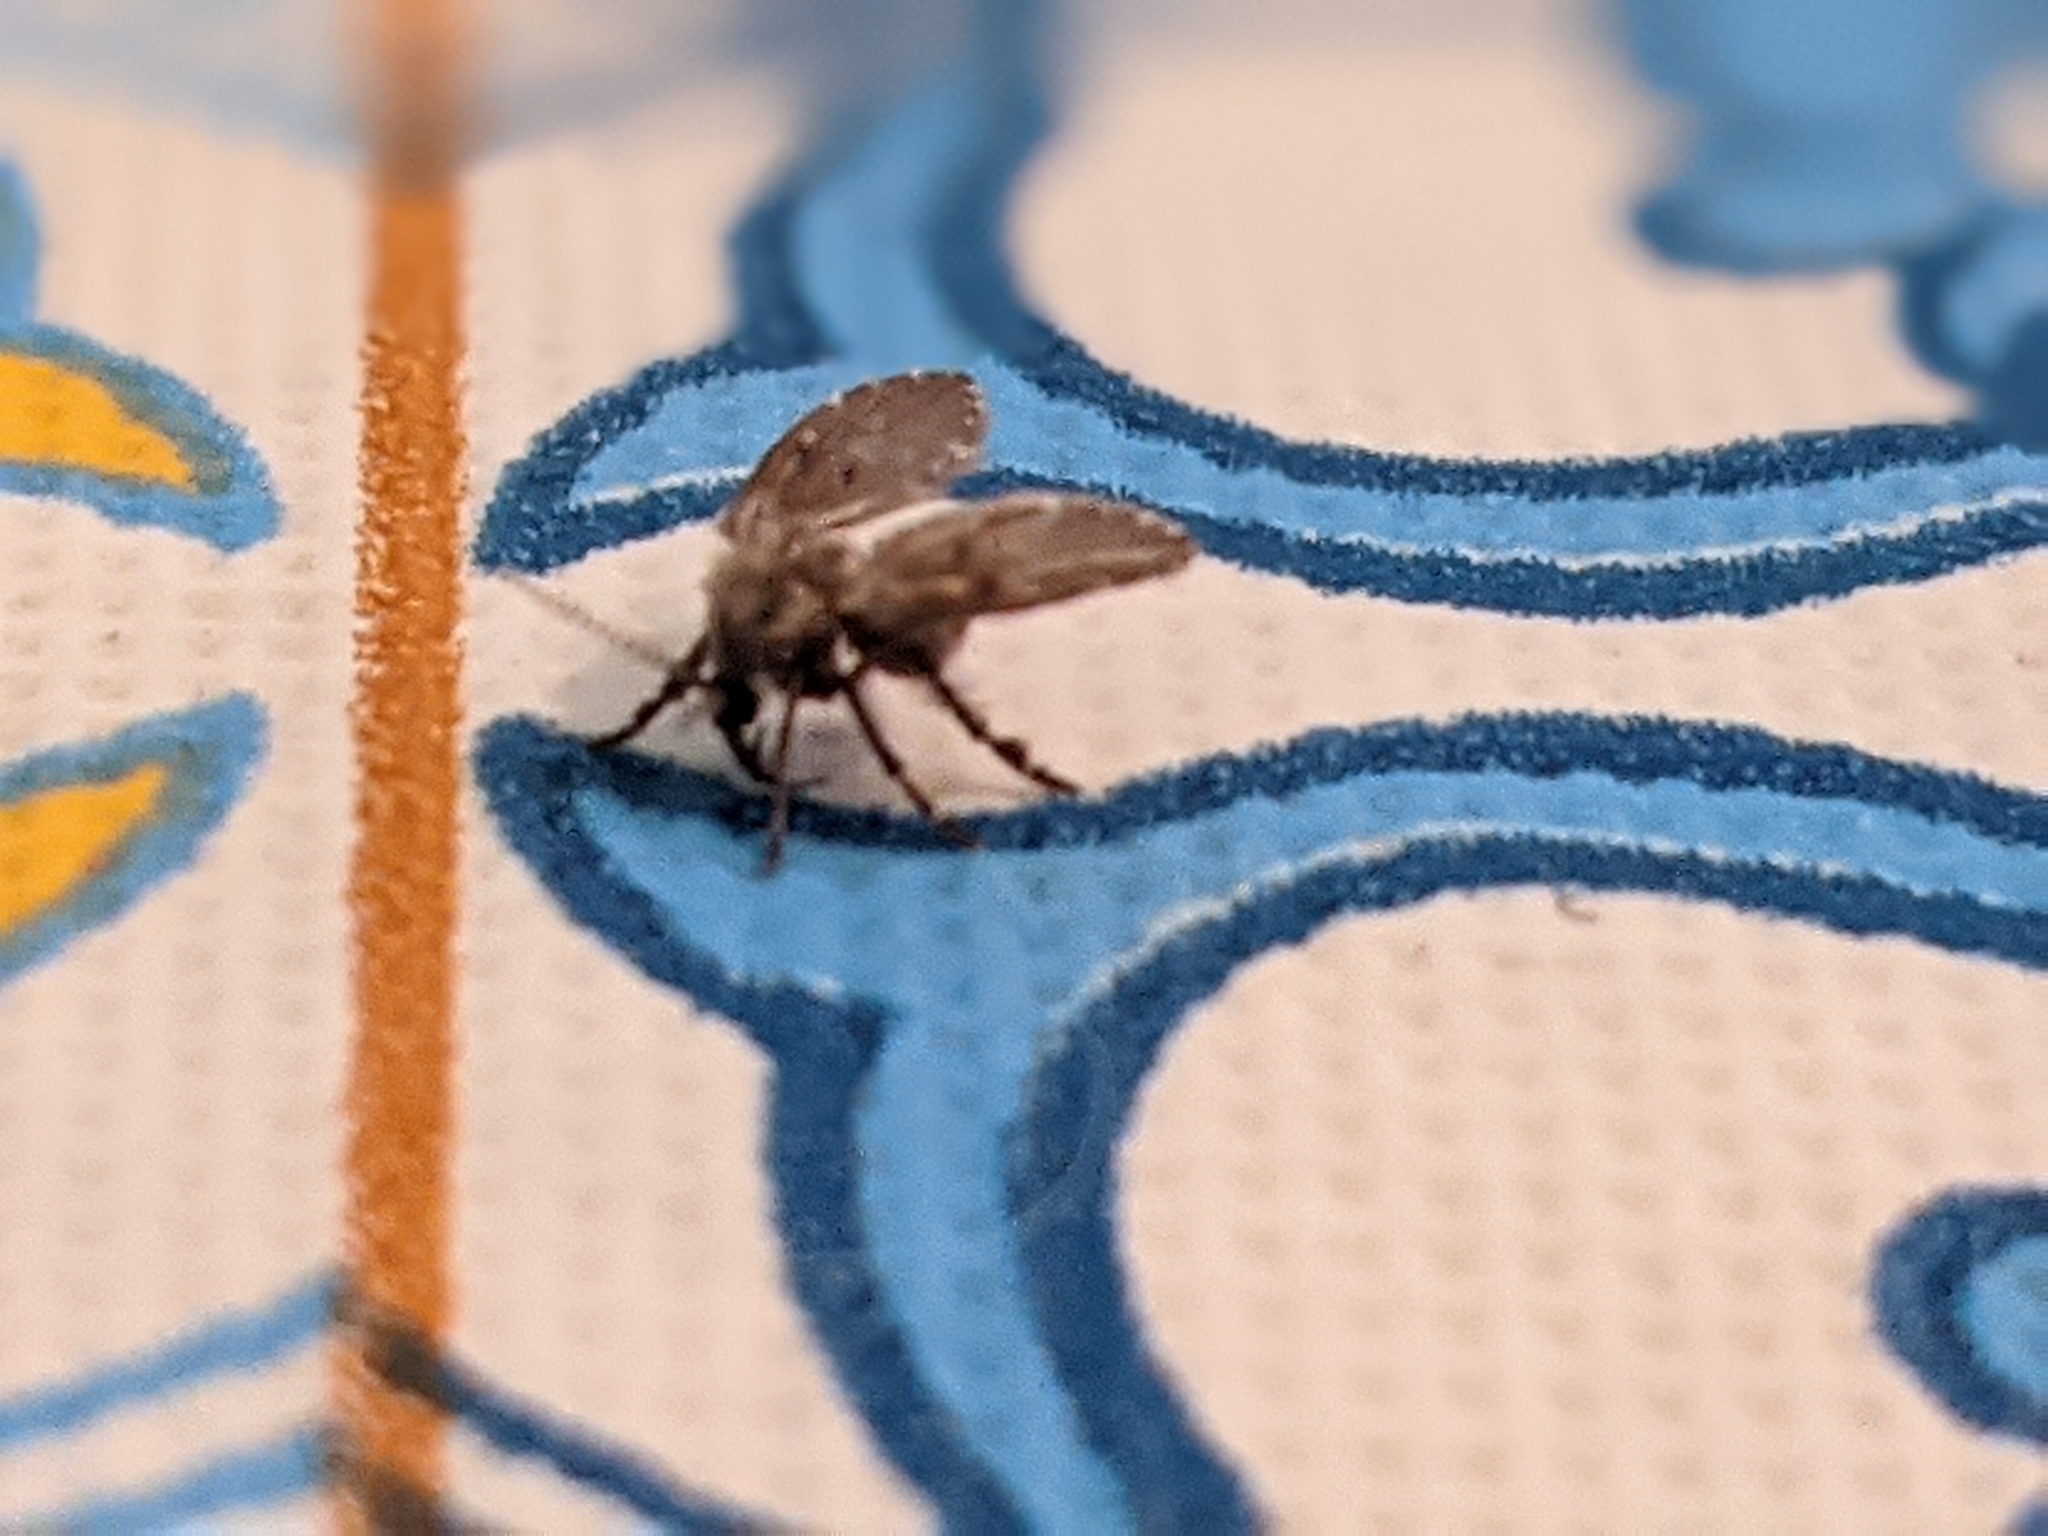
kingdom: Animalia
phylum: Arthropoda
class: Insecta
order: Diptera
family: Psychodidae
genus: Clogmia
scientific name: Clogmia albipunctatus
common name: White-spotted moth fly
